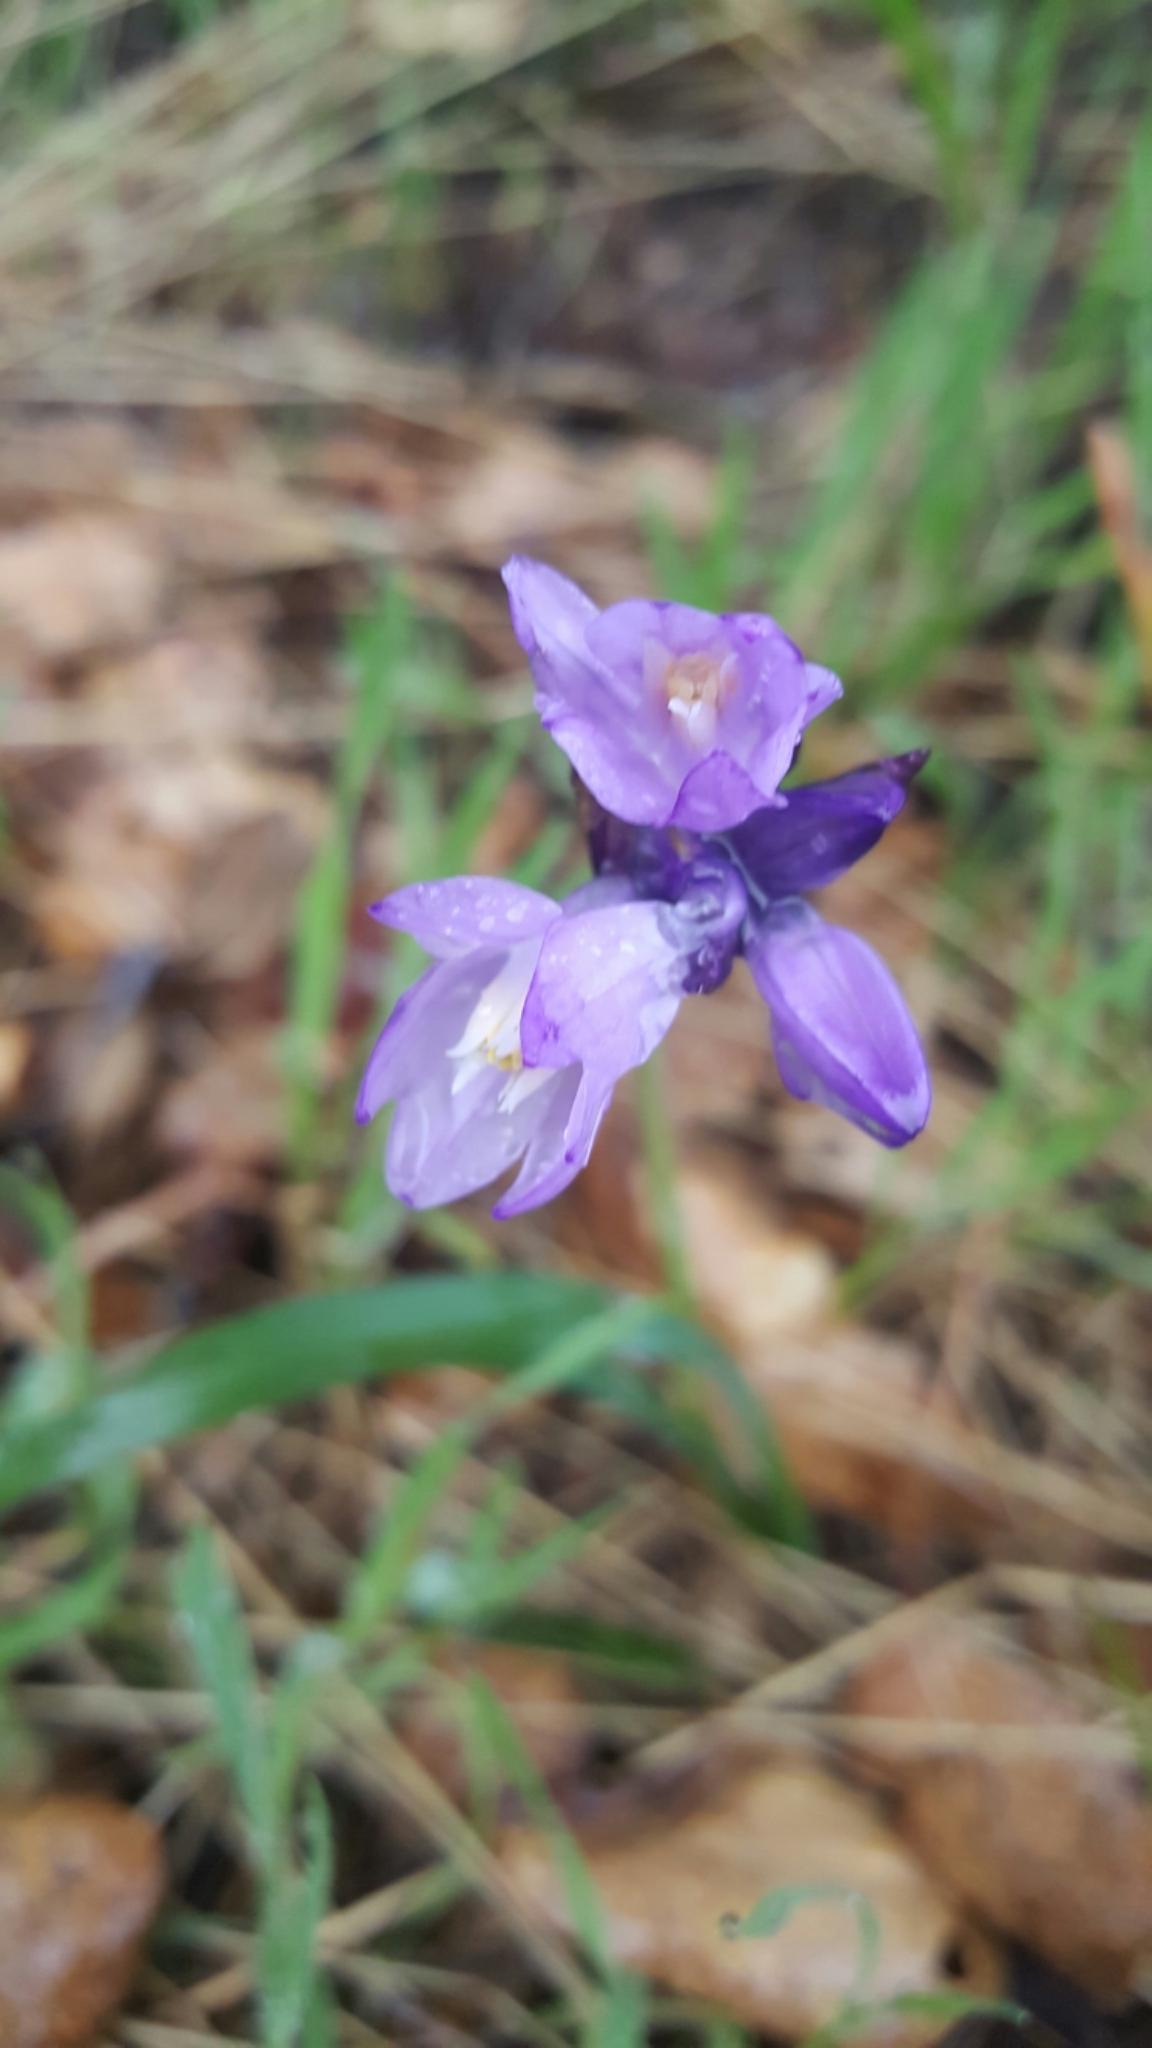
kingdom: Plantae
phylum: Tracheophyta
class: Liliopsida
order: Asparagales
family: Asparagaceae
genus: Dipterostemon
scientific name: Dipterostemon capitatus
